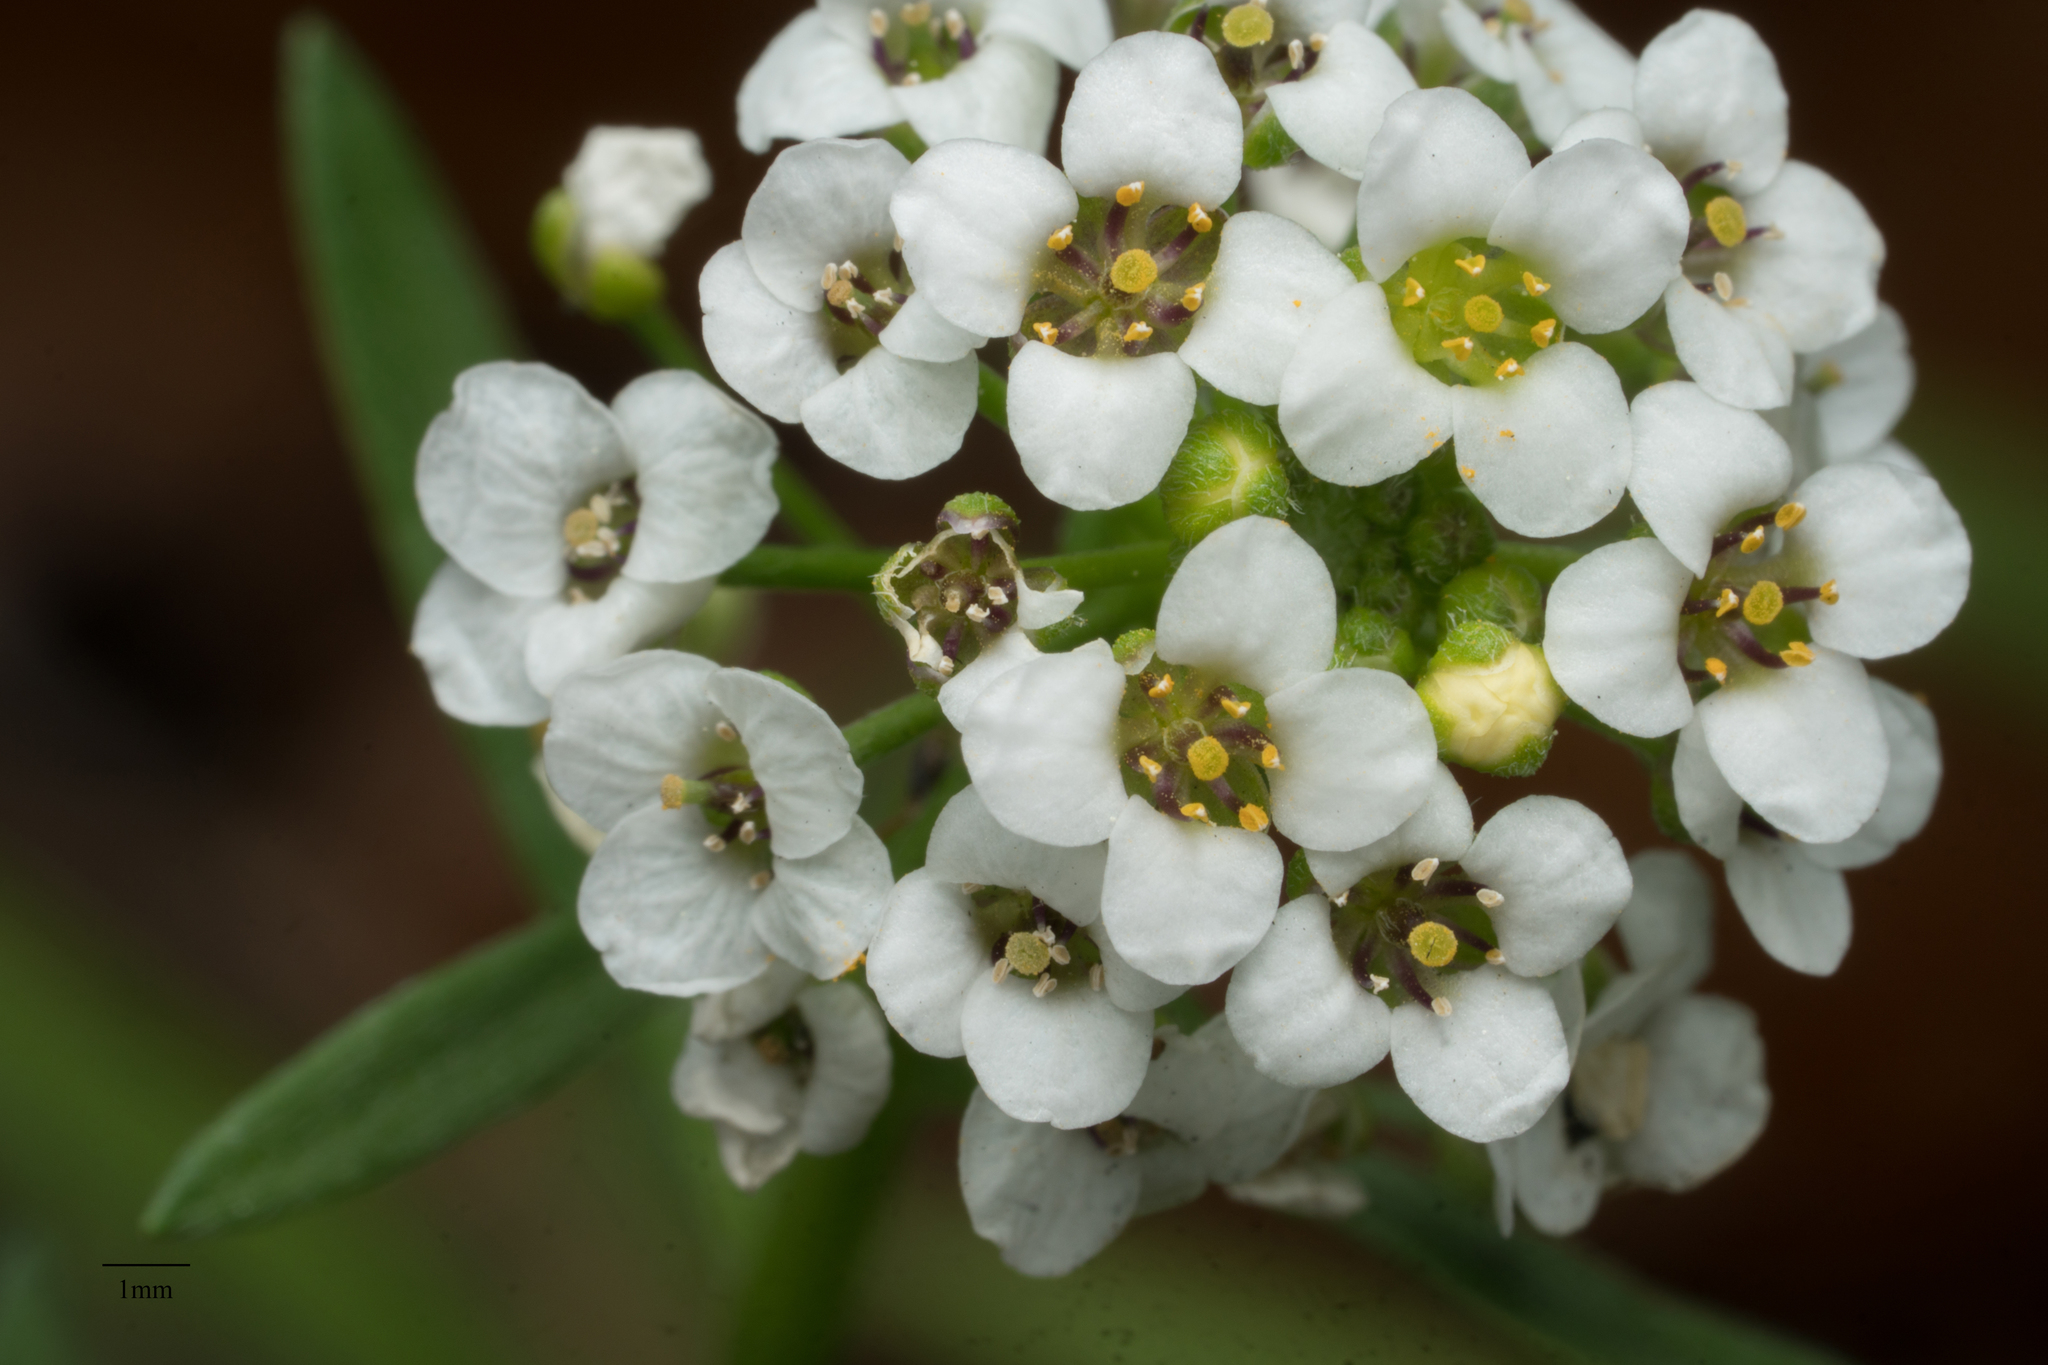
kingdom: Plantae
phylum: Tracheophyta
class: Magnoliopsida
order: Brassicales
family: Brassicaceae
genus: Lobularia
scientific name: Lobularia maritima
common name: Sweet alison
